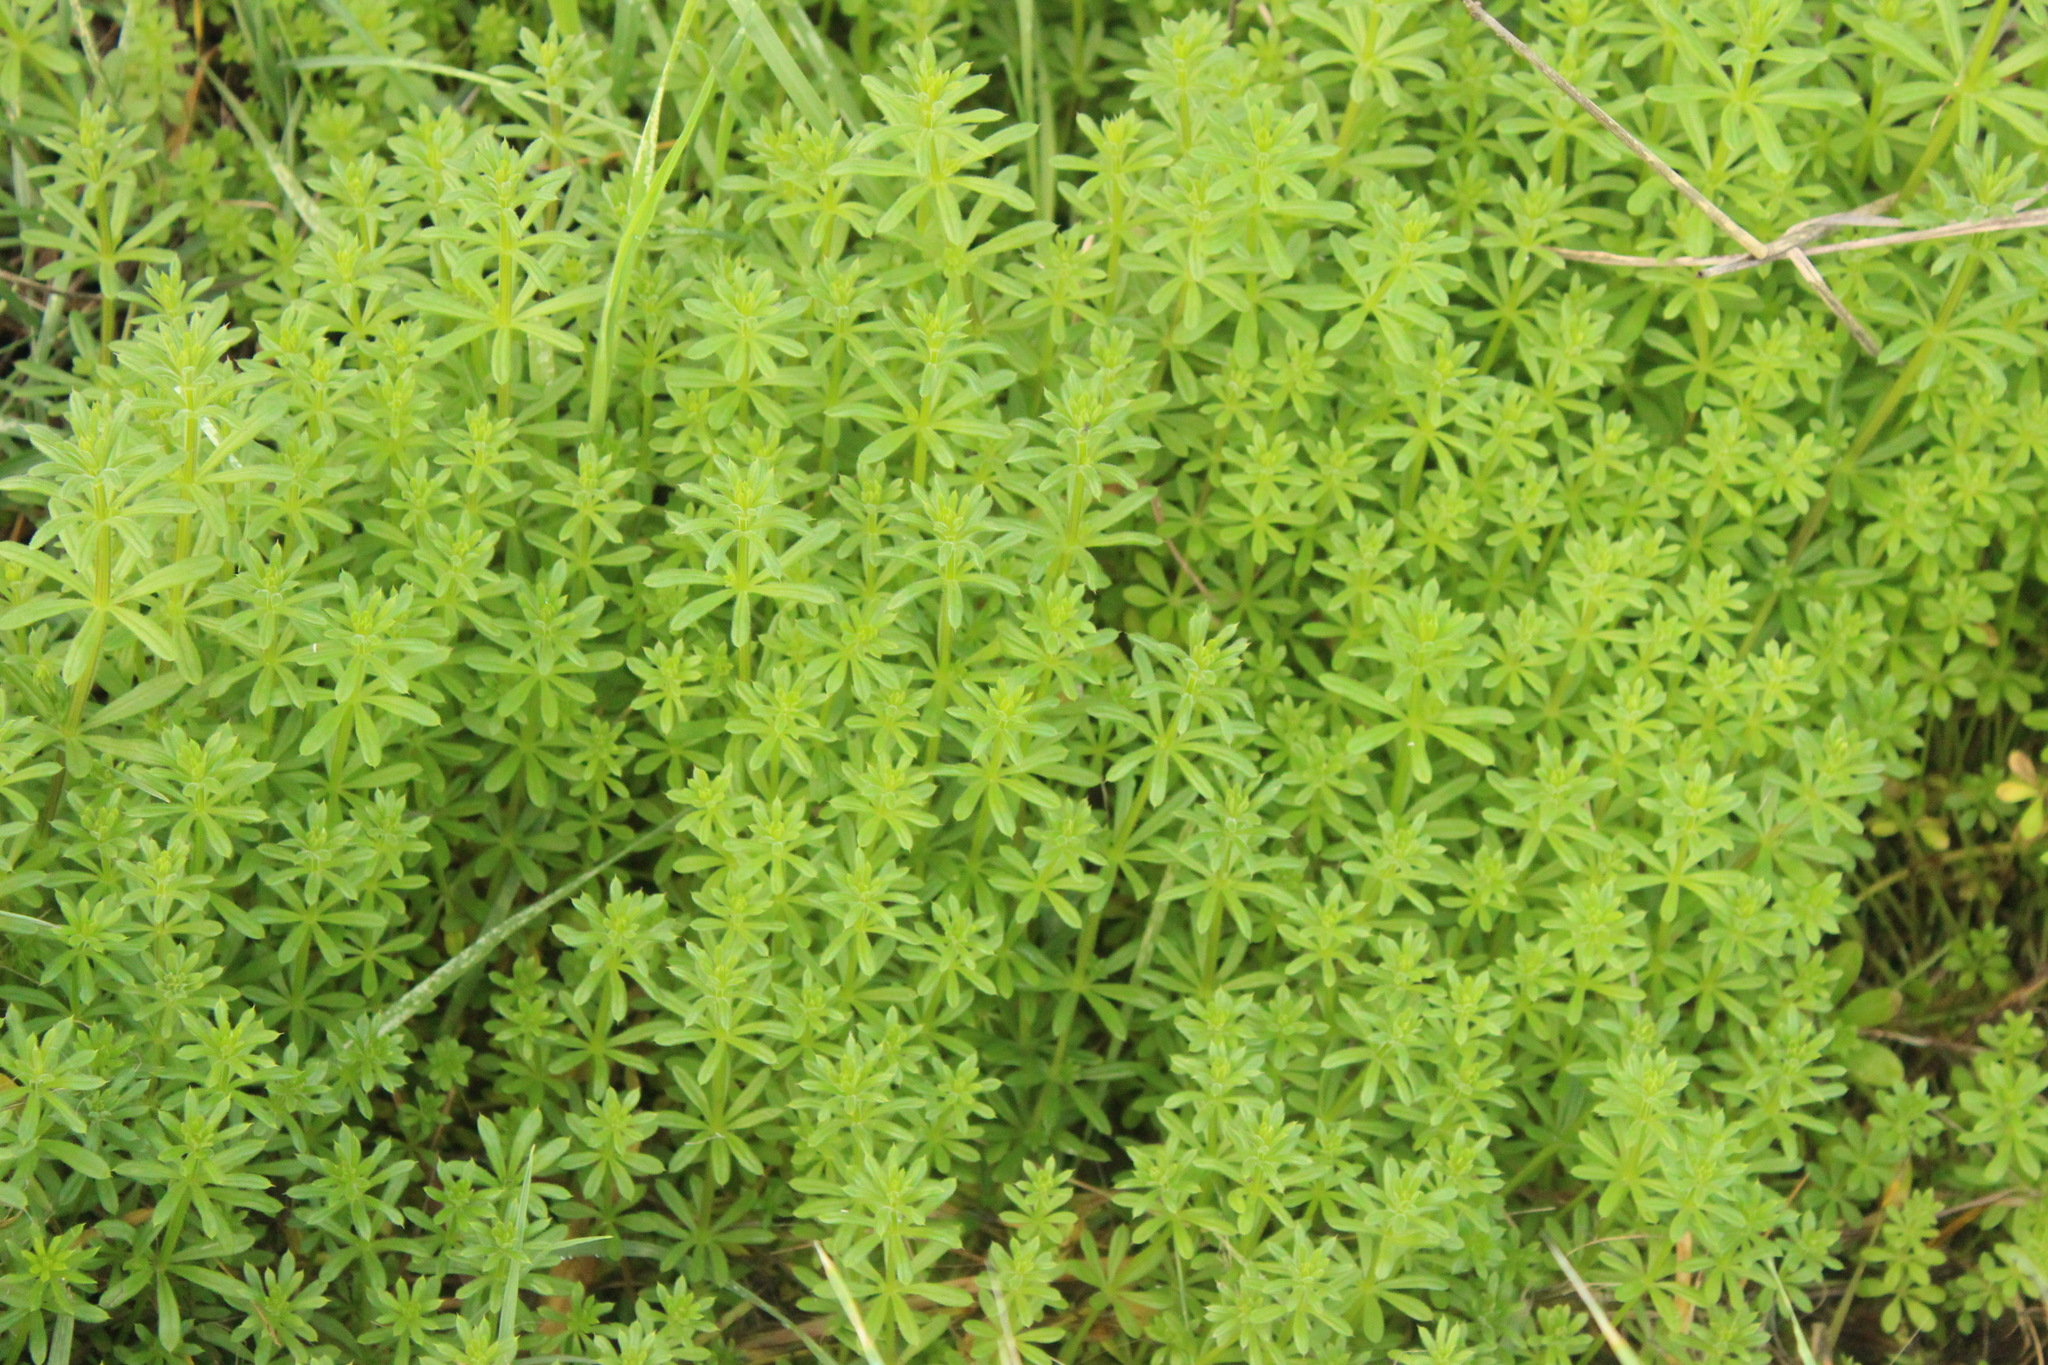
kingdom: Plantae
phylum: Tracheophyta
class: Magnoliopsida
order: Gentianales
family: Rubiaceae
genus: Galium
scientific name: Galium aparine
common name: Cleavers
